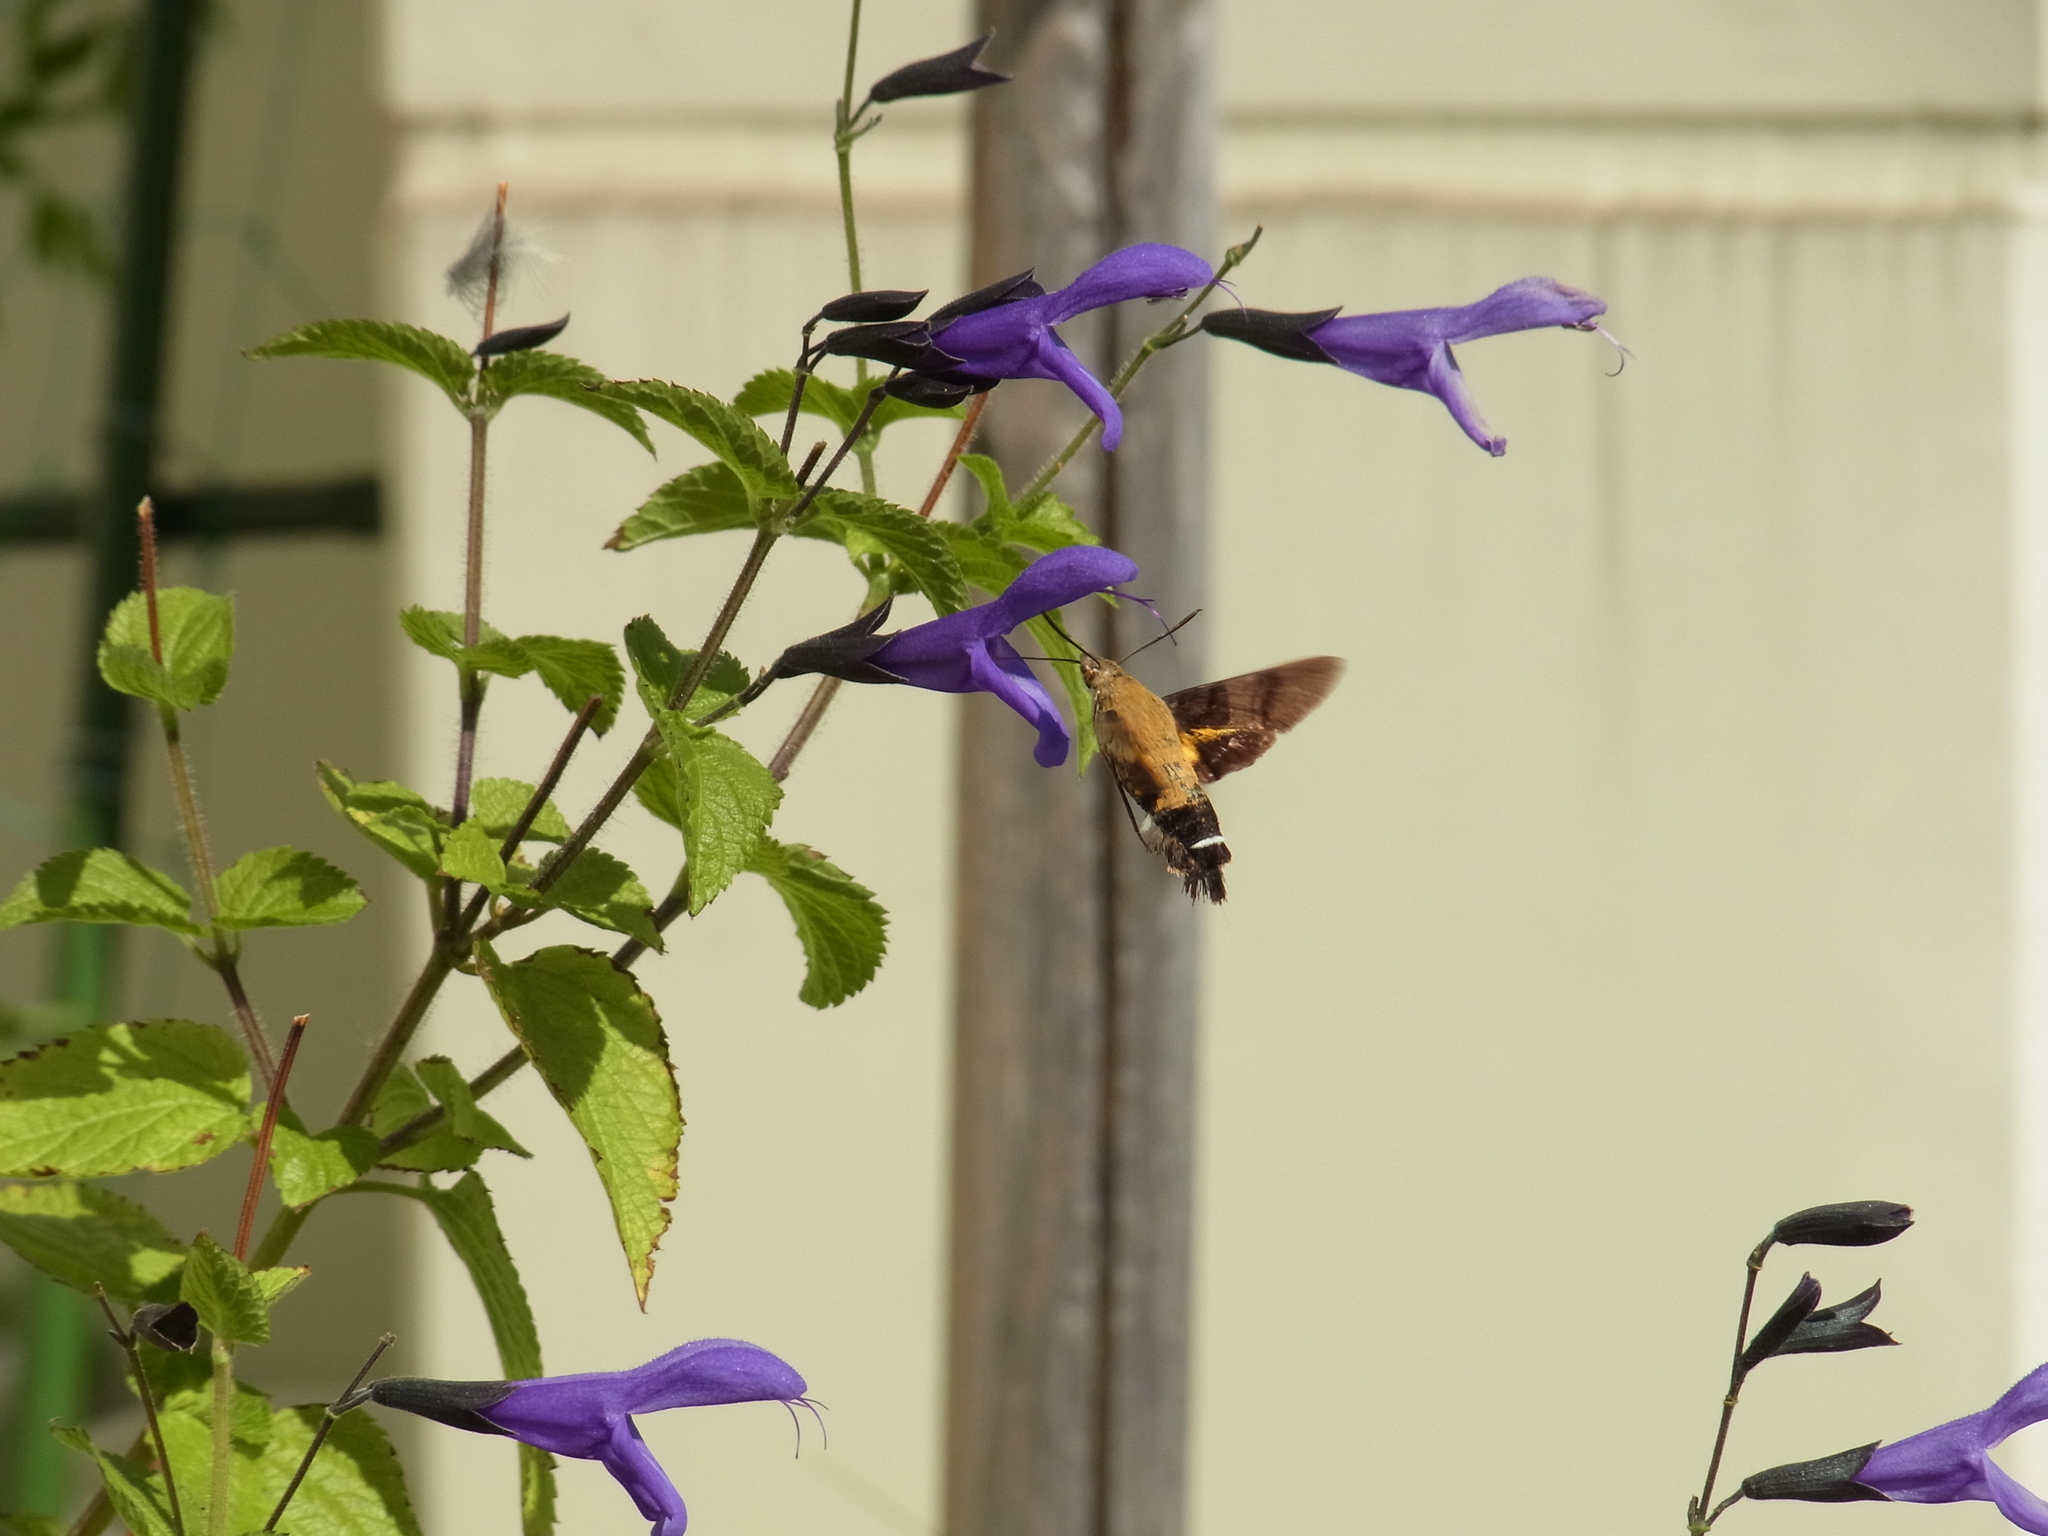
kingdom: Animalia
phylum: Arthropoda
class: Insecta
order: Lepidoptera
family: Sphingidae
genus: Macroglossum
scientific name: Macroglossum bombylans
